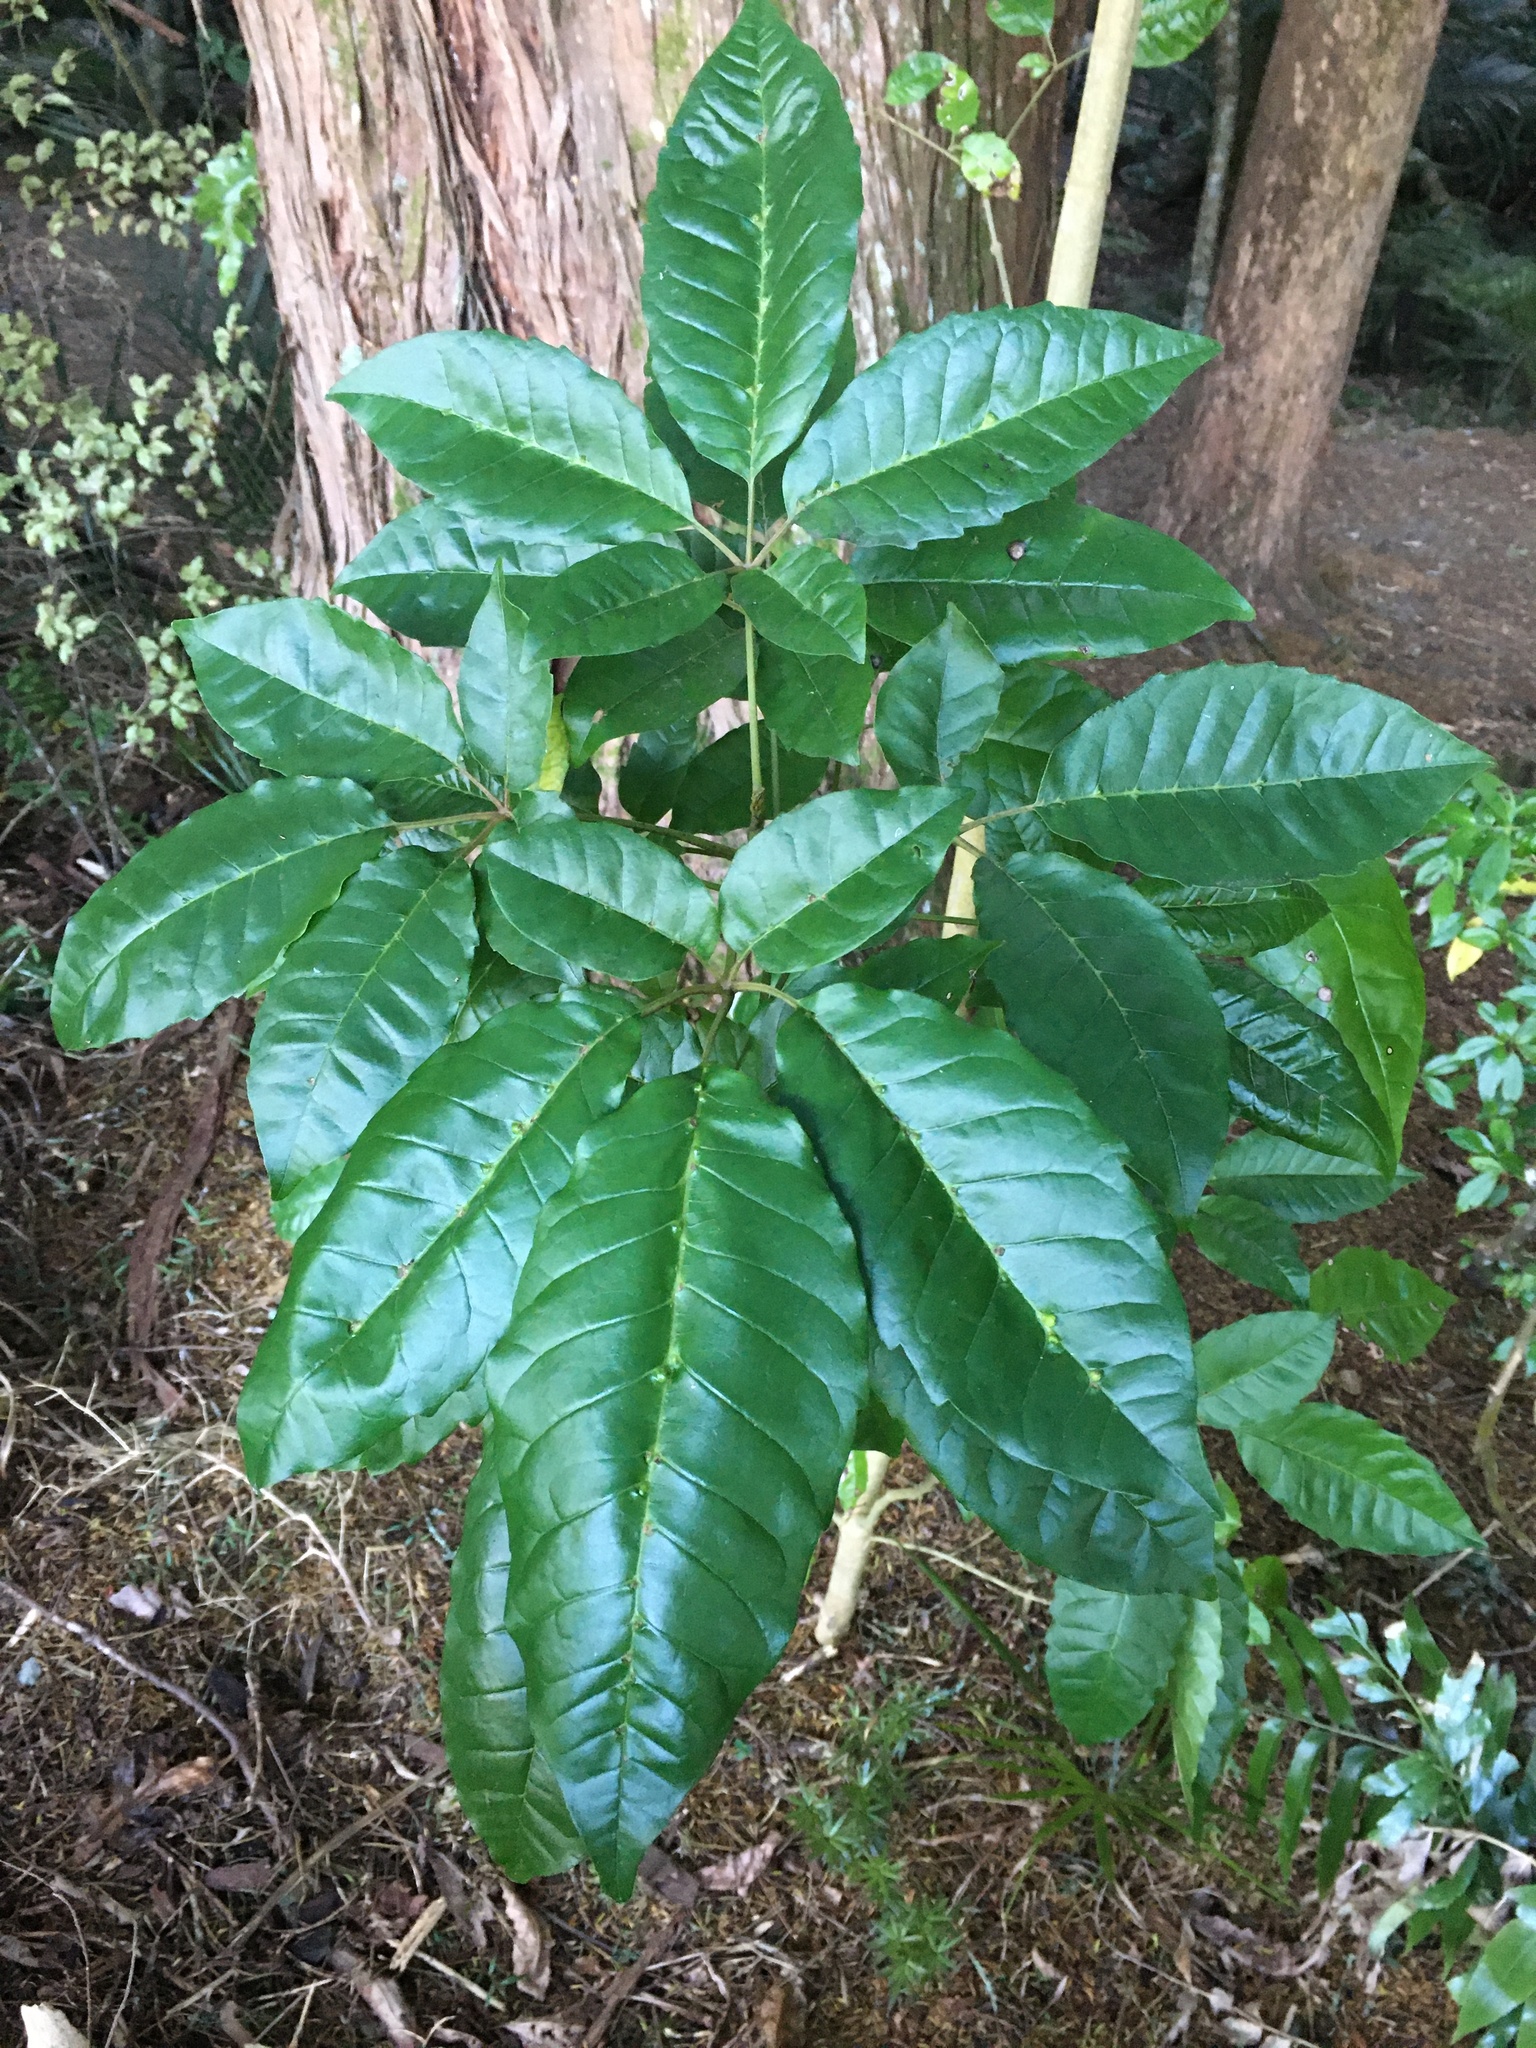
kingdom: Plantae
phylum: Tracheophyta
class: Magnoliopsida
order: Lamiales
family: Lamiaceae
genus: Vitex
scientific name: Vitex lucens
